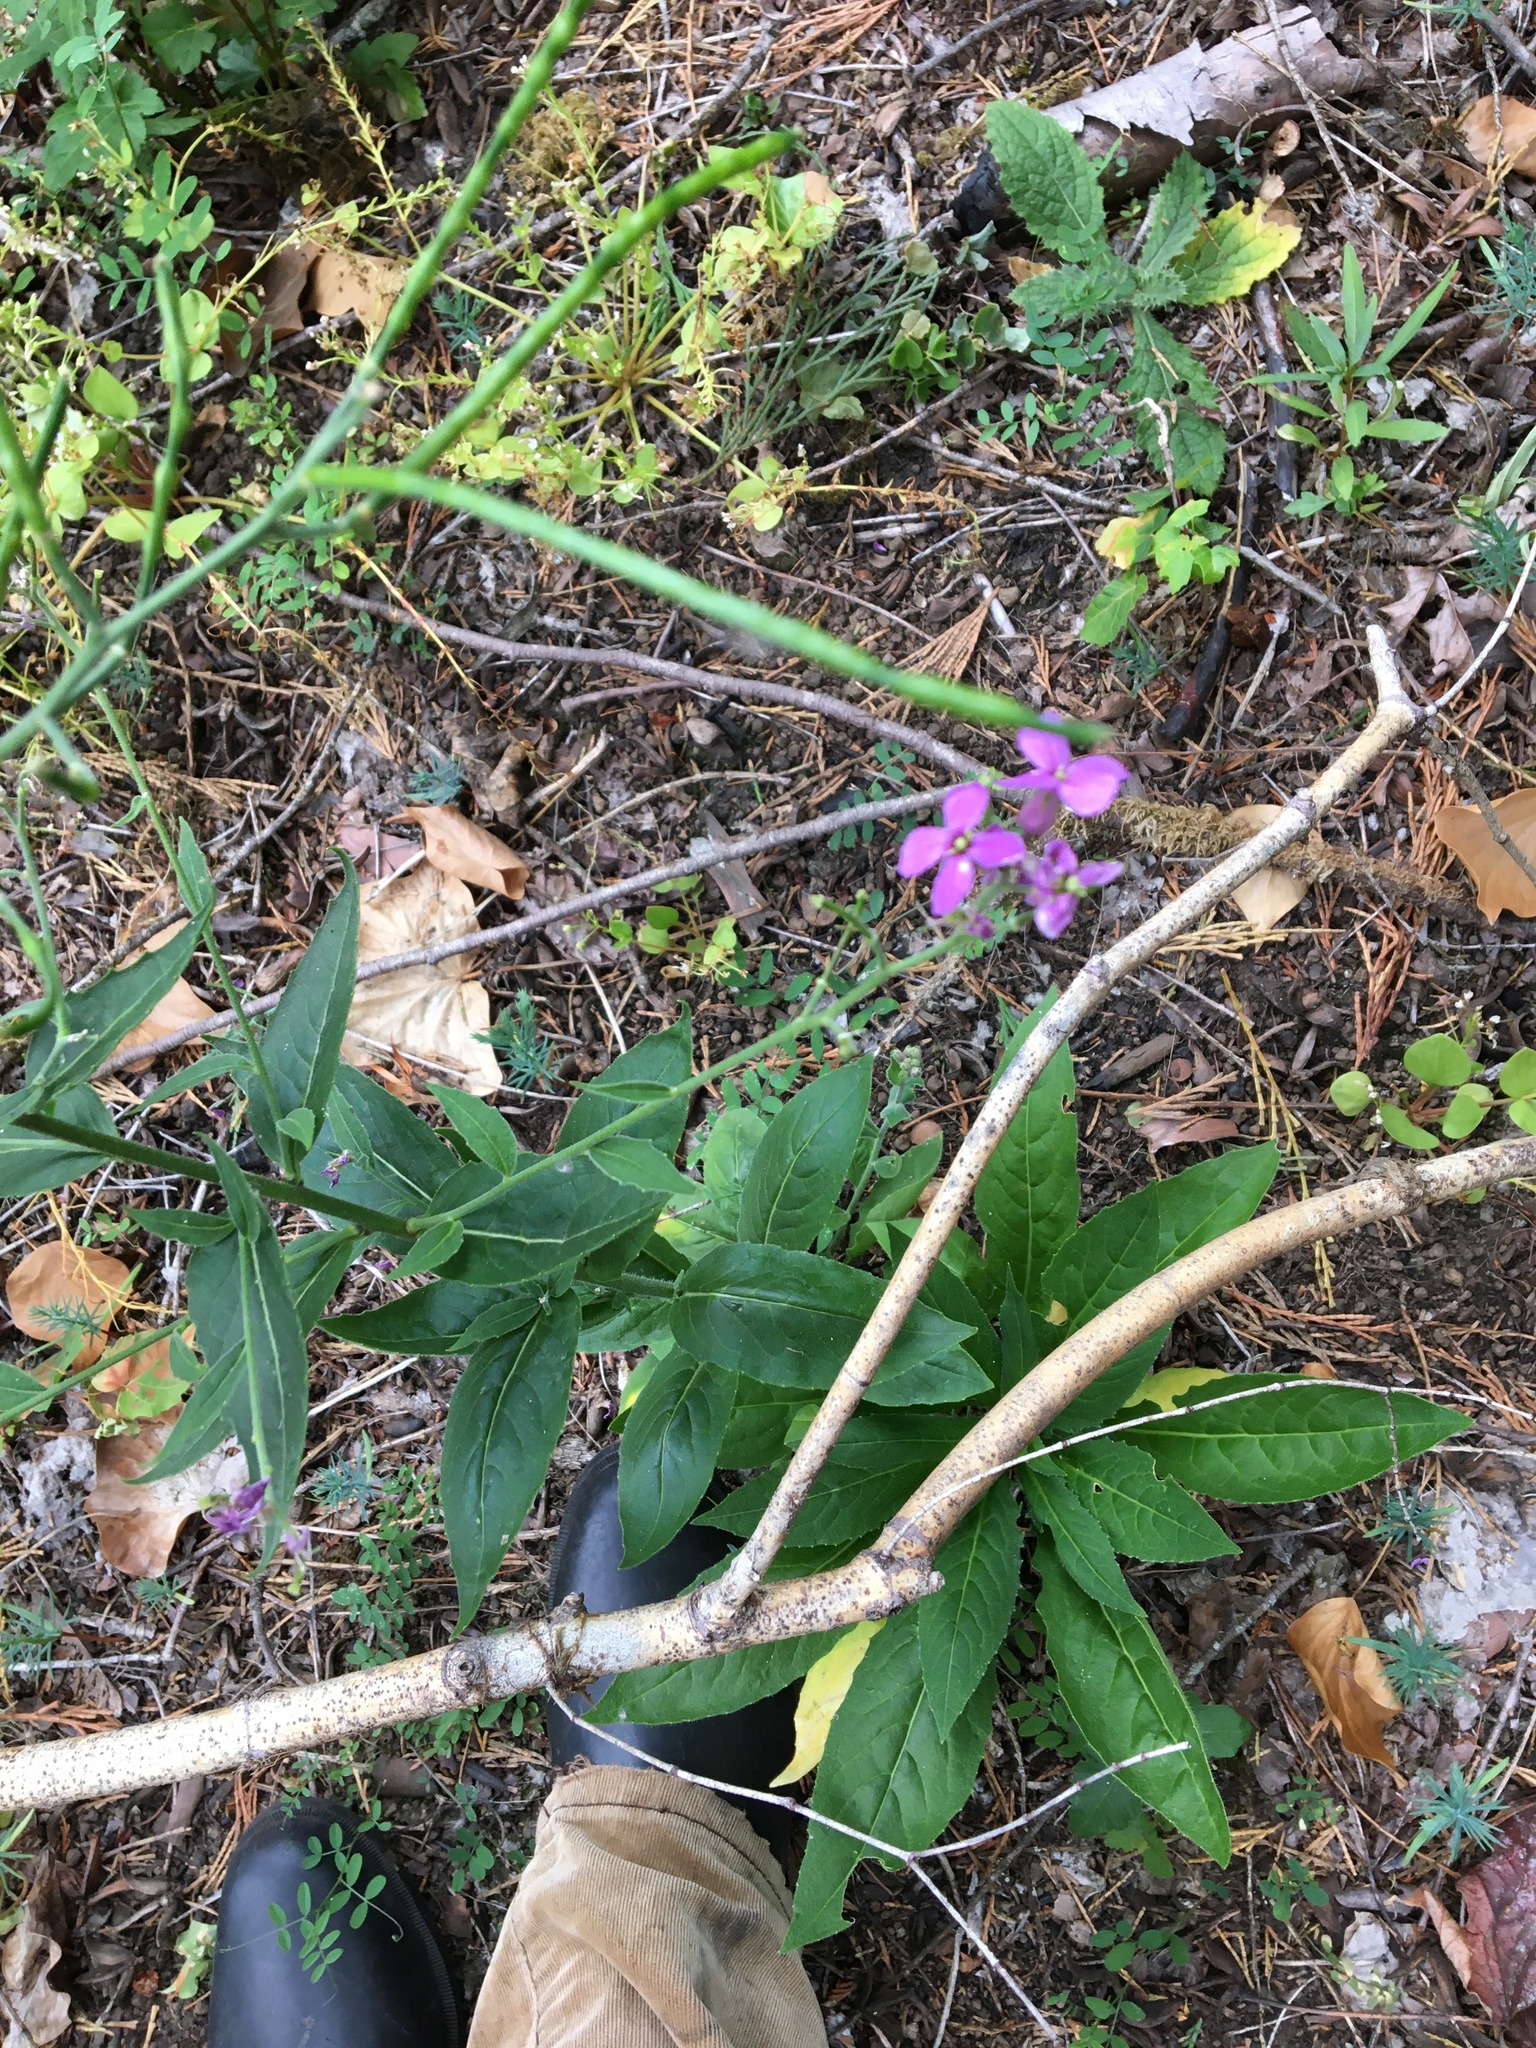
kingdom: Plantae
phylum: Tracheophyta
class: Magnoliopsida
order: Brassicales
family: Brassicaceae
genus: Hesperis
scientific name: Hesperis matronalis
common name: Dame's-violet
